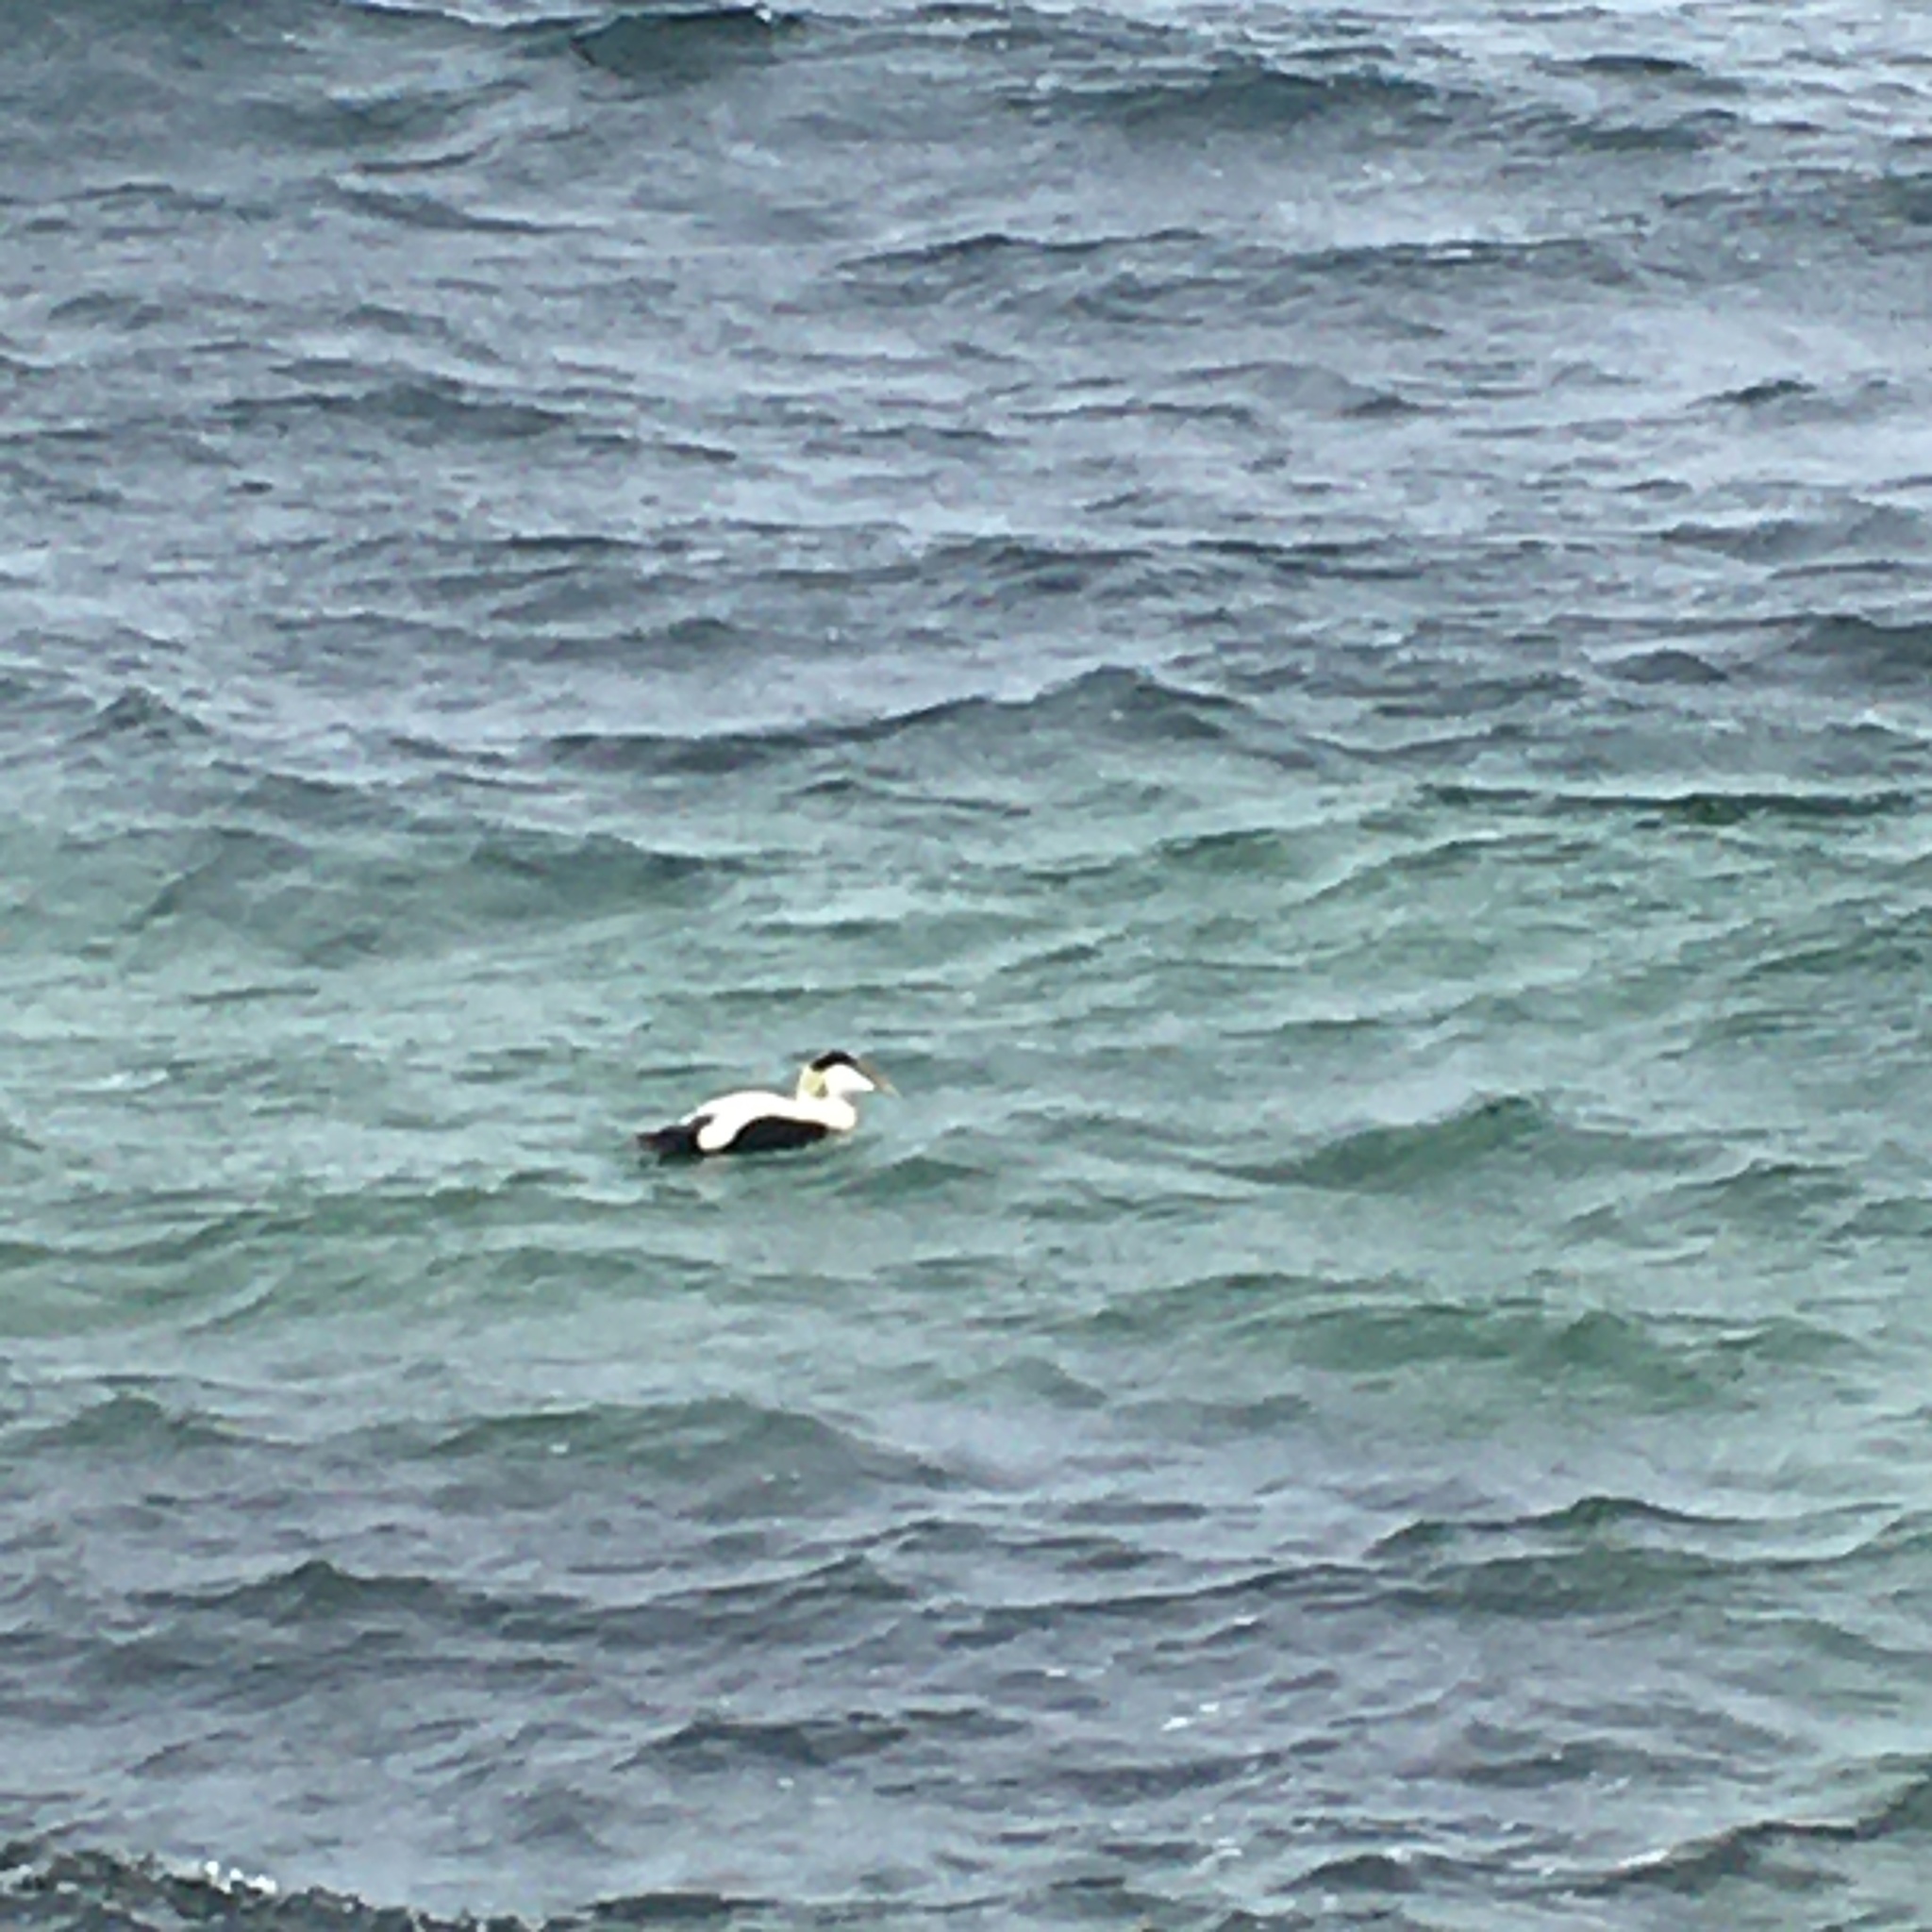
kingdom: Animalia
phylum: Chordata
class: Aves
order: Anseriformes
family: Anatidae
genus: Somateria
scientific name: Somateria mollissima
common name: Common eider
